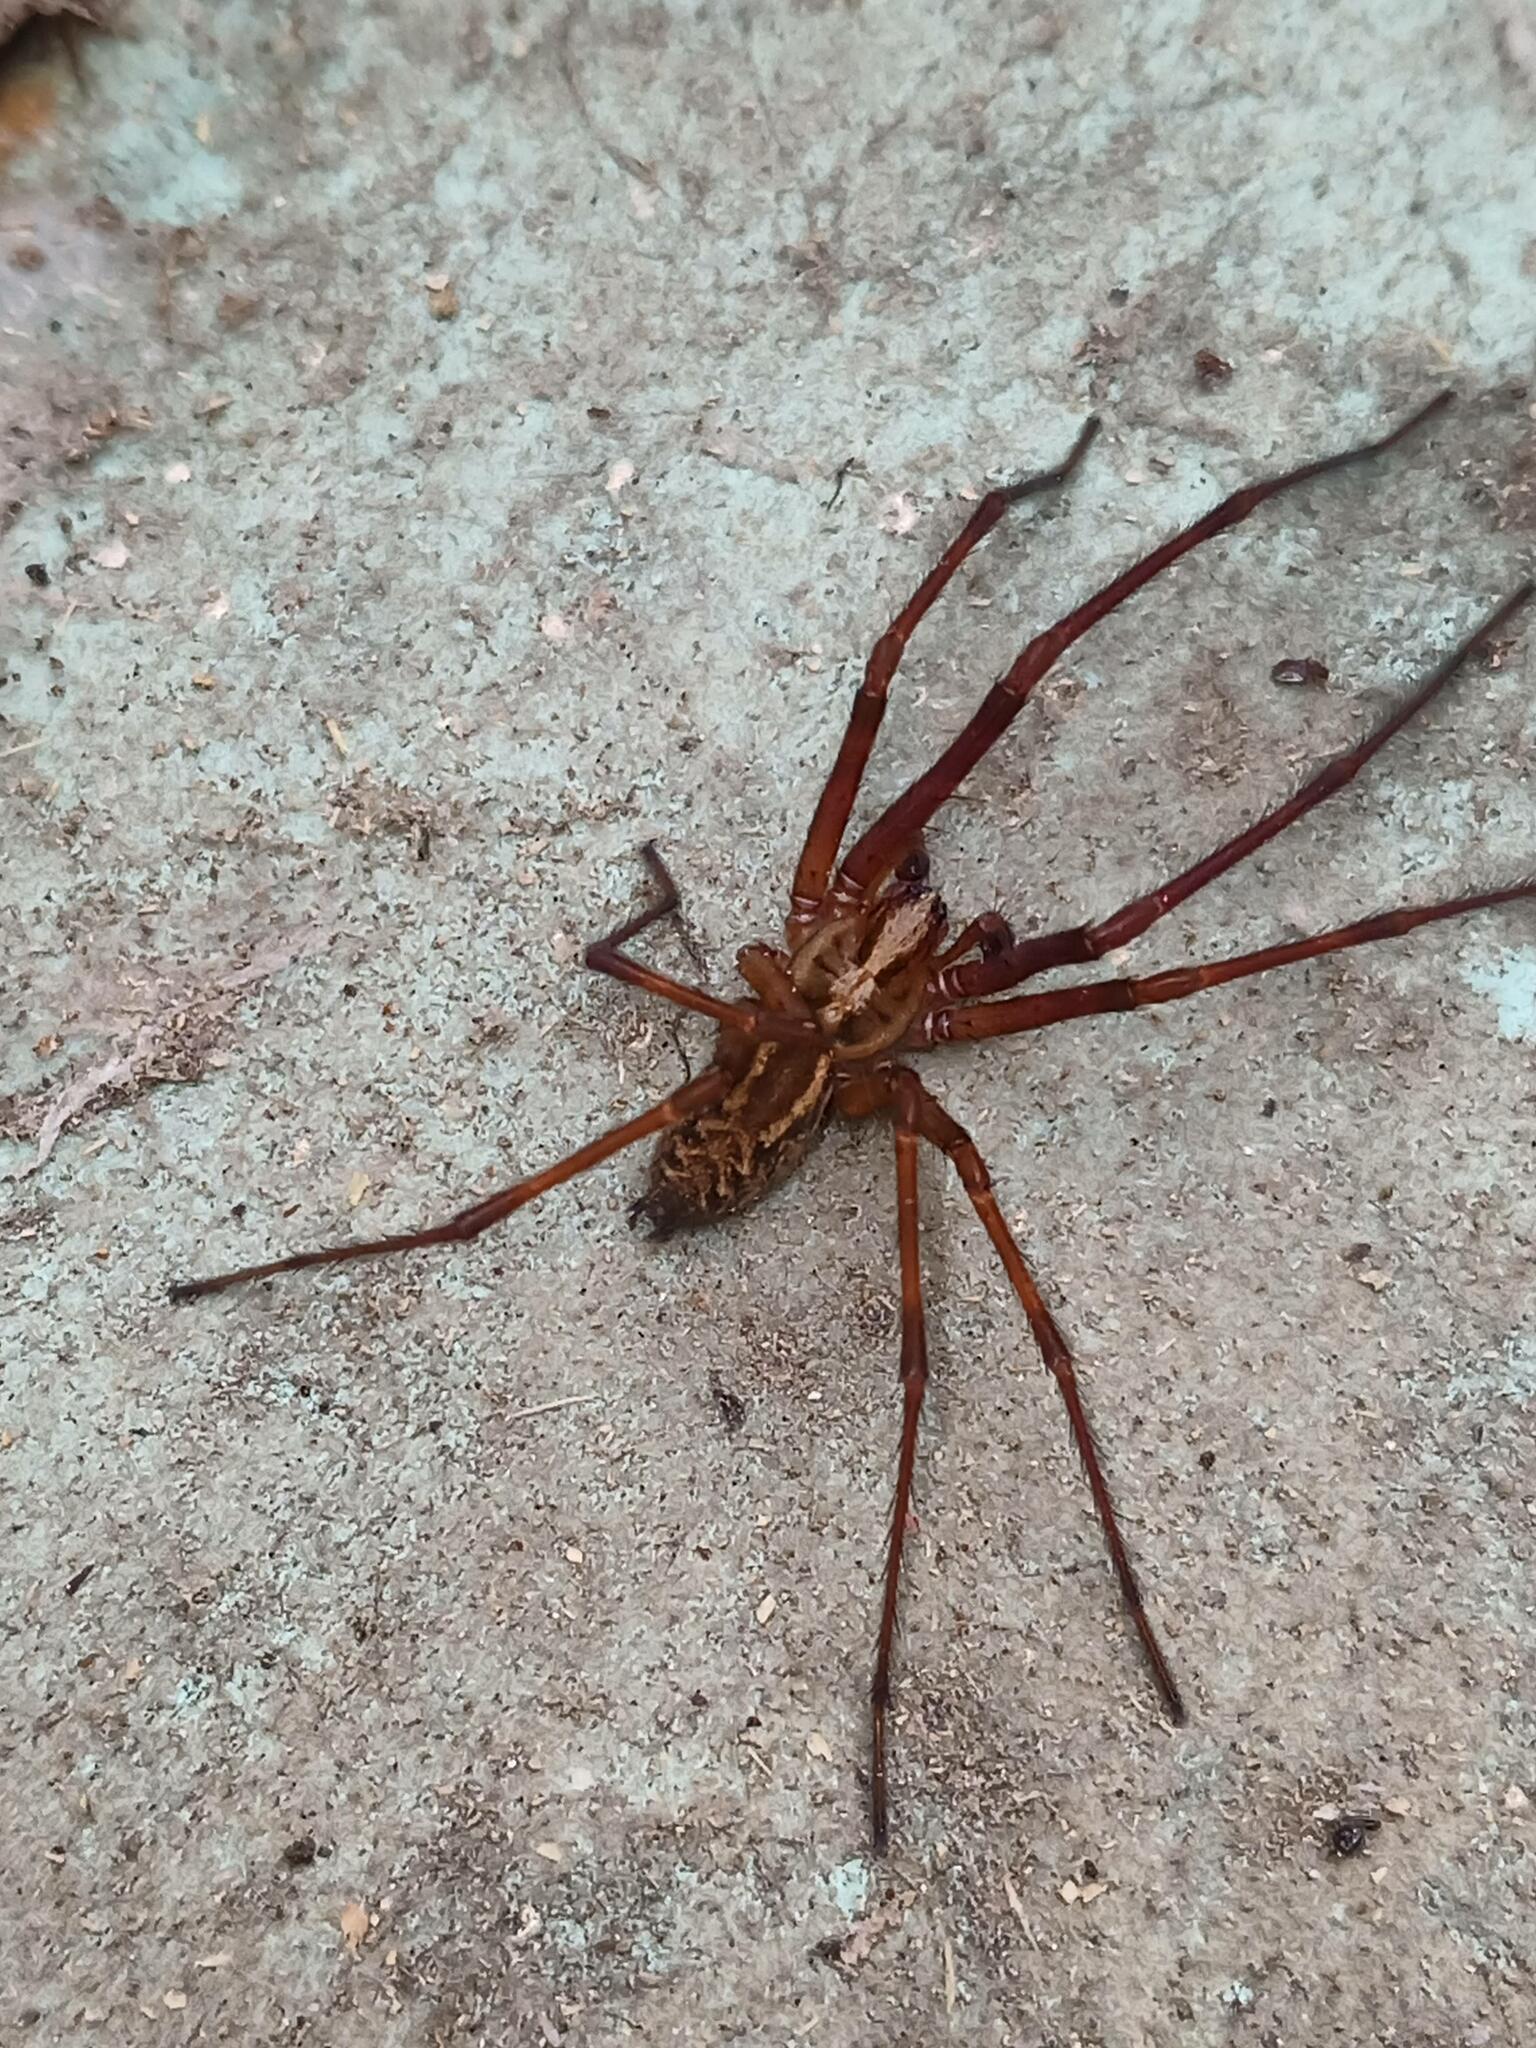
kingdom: Animalia
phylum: Arthropoda
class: Arachnida
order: Araneae
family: Agelenidae
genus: Eratigena
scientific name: Eratigena inermis
